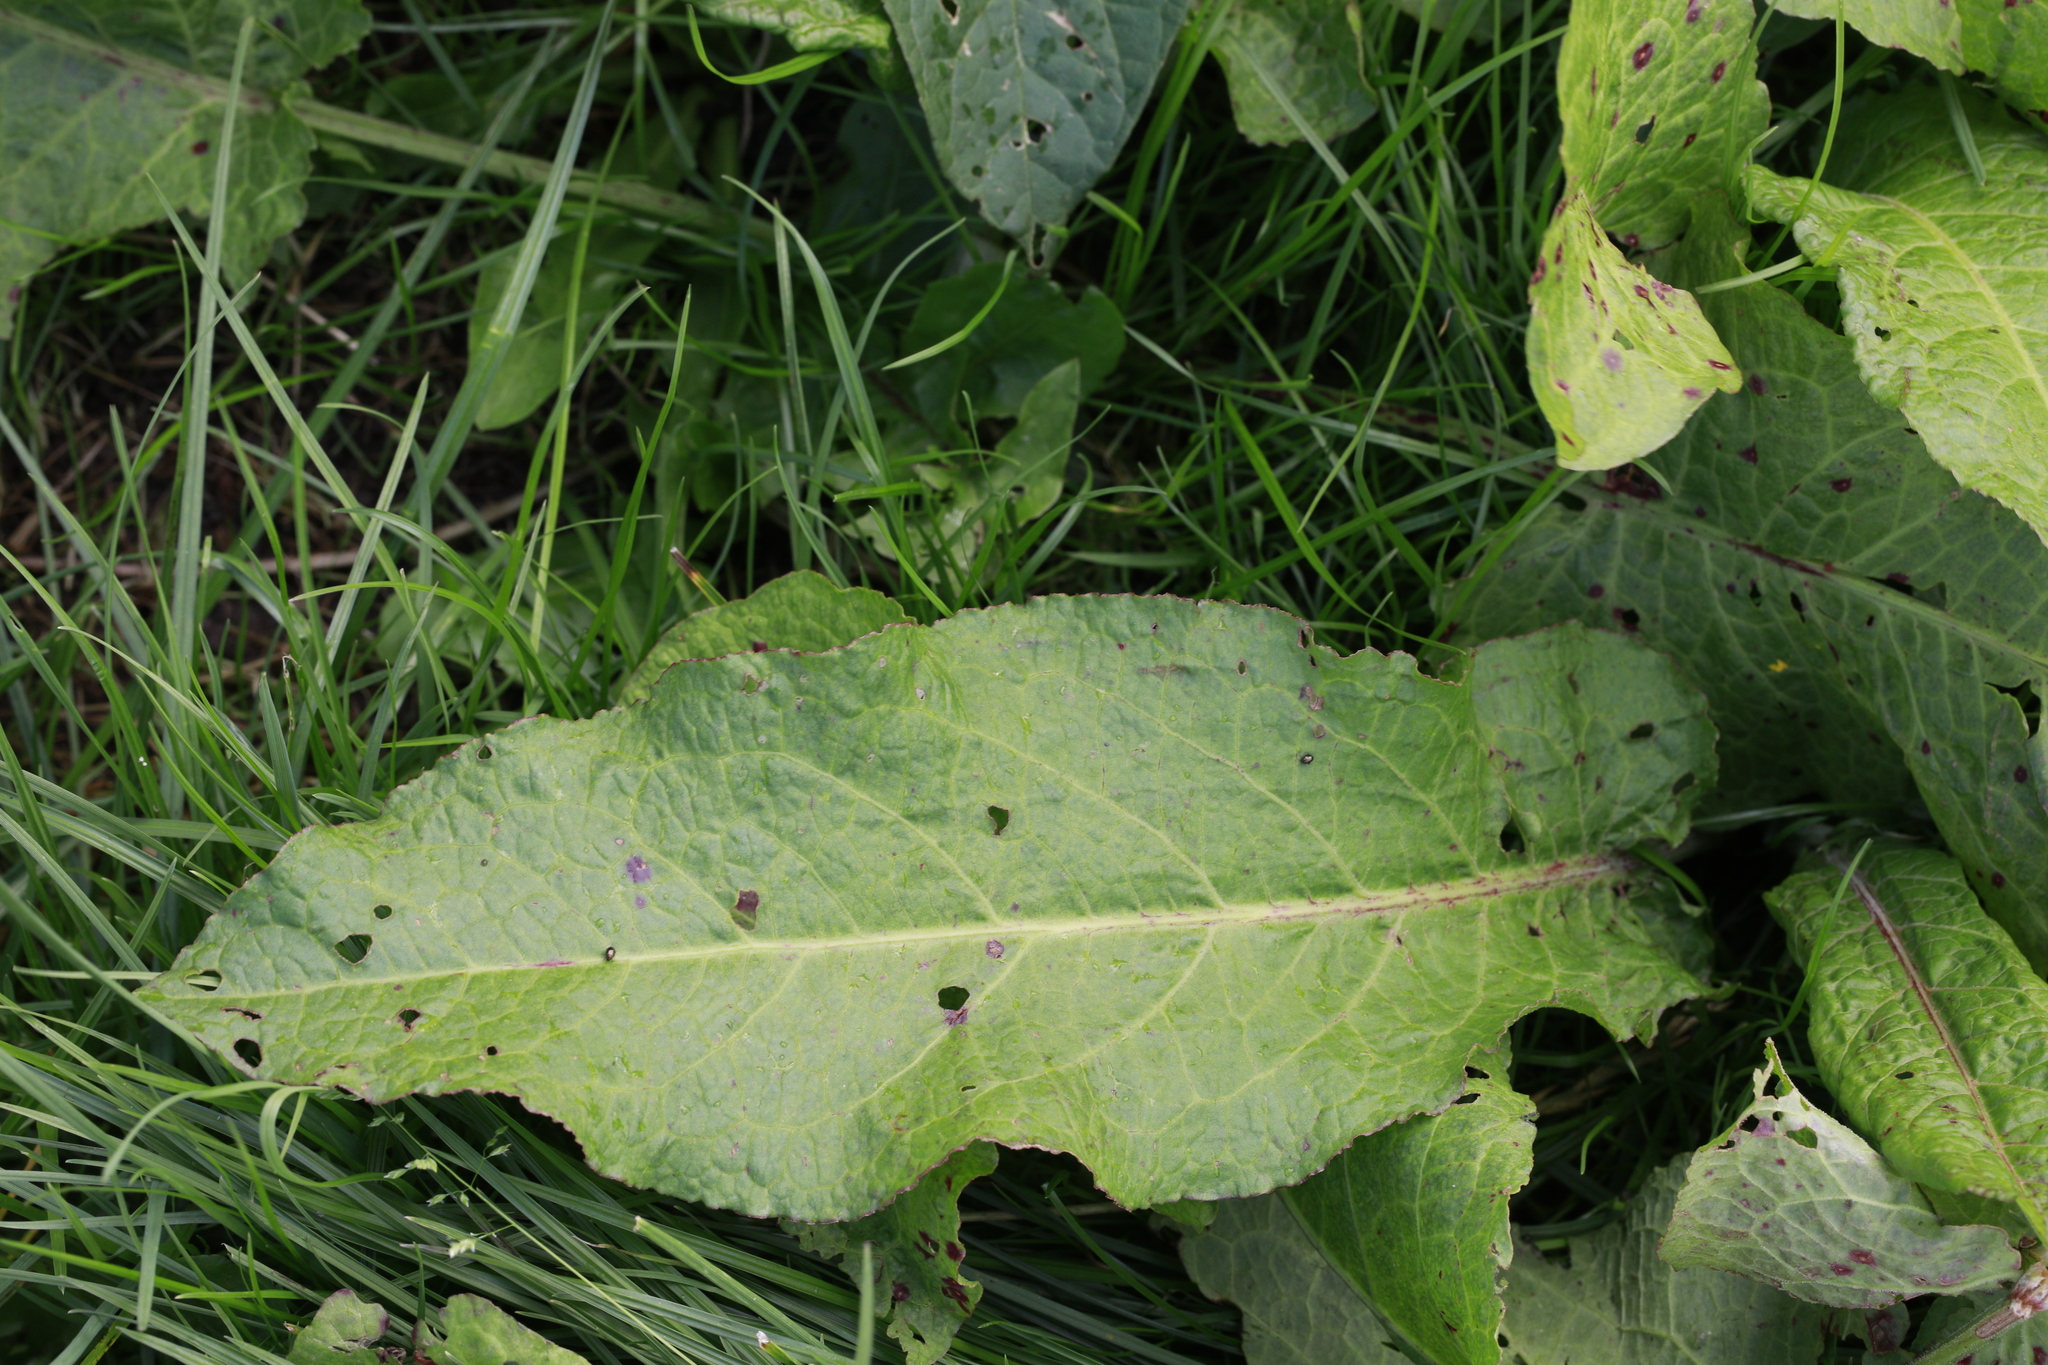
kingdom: Plantae
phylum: Tracheophyta
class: Magnoliopsida
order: Caryophyllales
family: Polygonaceae
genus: Rumex
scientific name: Rumex obtusifolius
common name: Bitter dock
